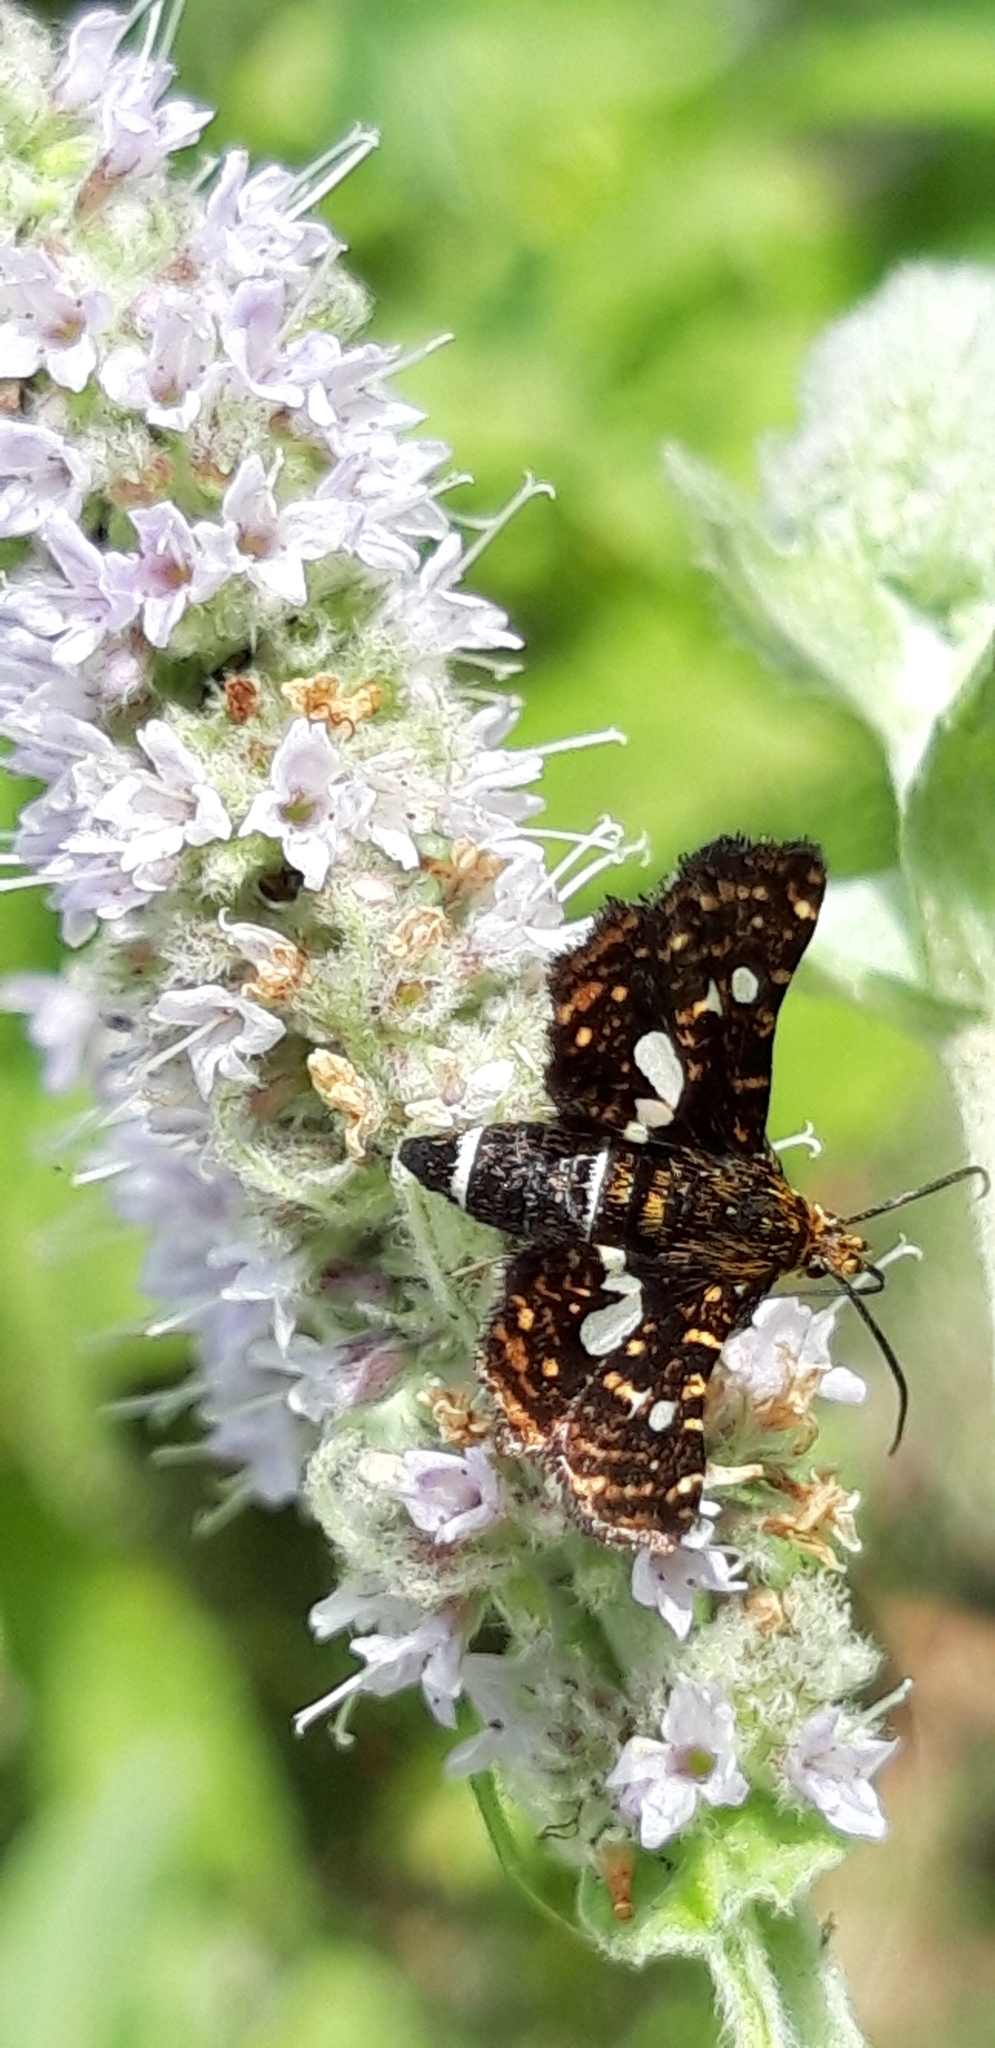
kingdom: Animalia
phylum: Arthropoda
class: Insecta
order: Lepidoptera
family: Thyrididae
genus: Thyris
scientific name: Thyris fenestrella
